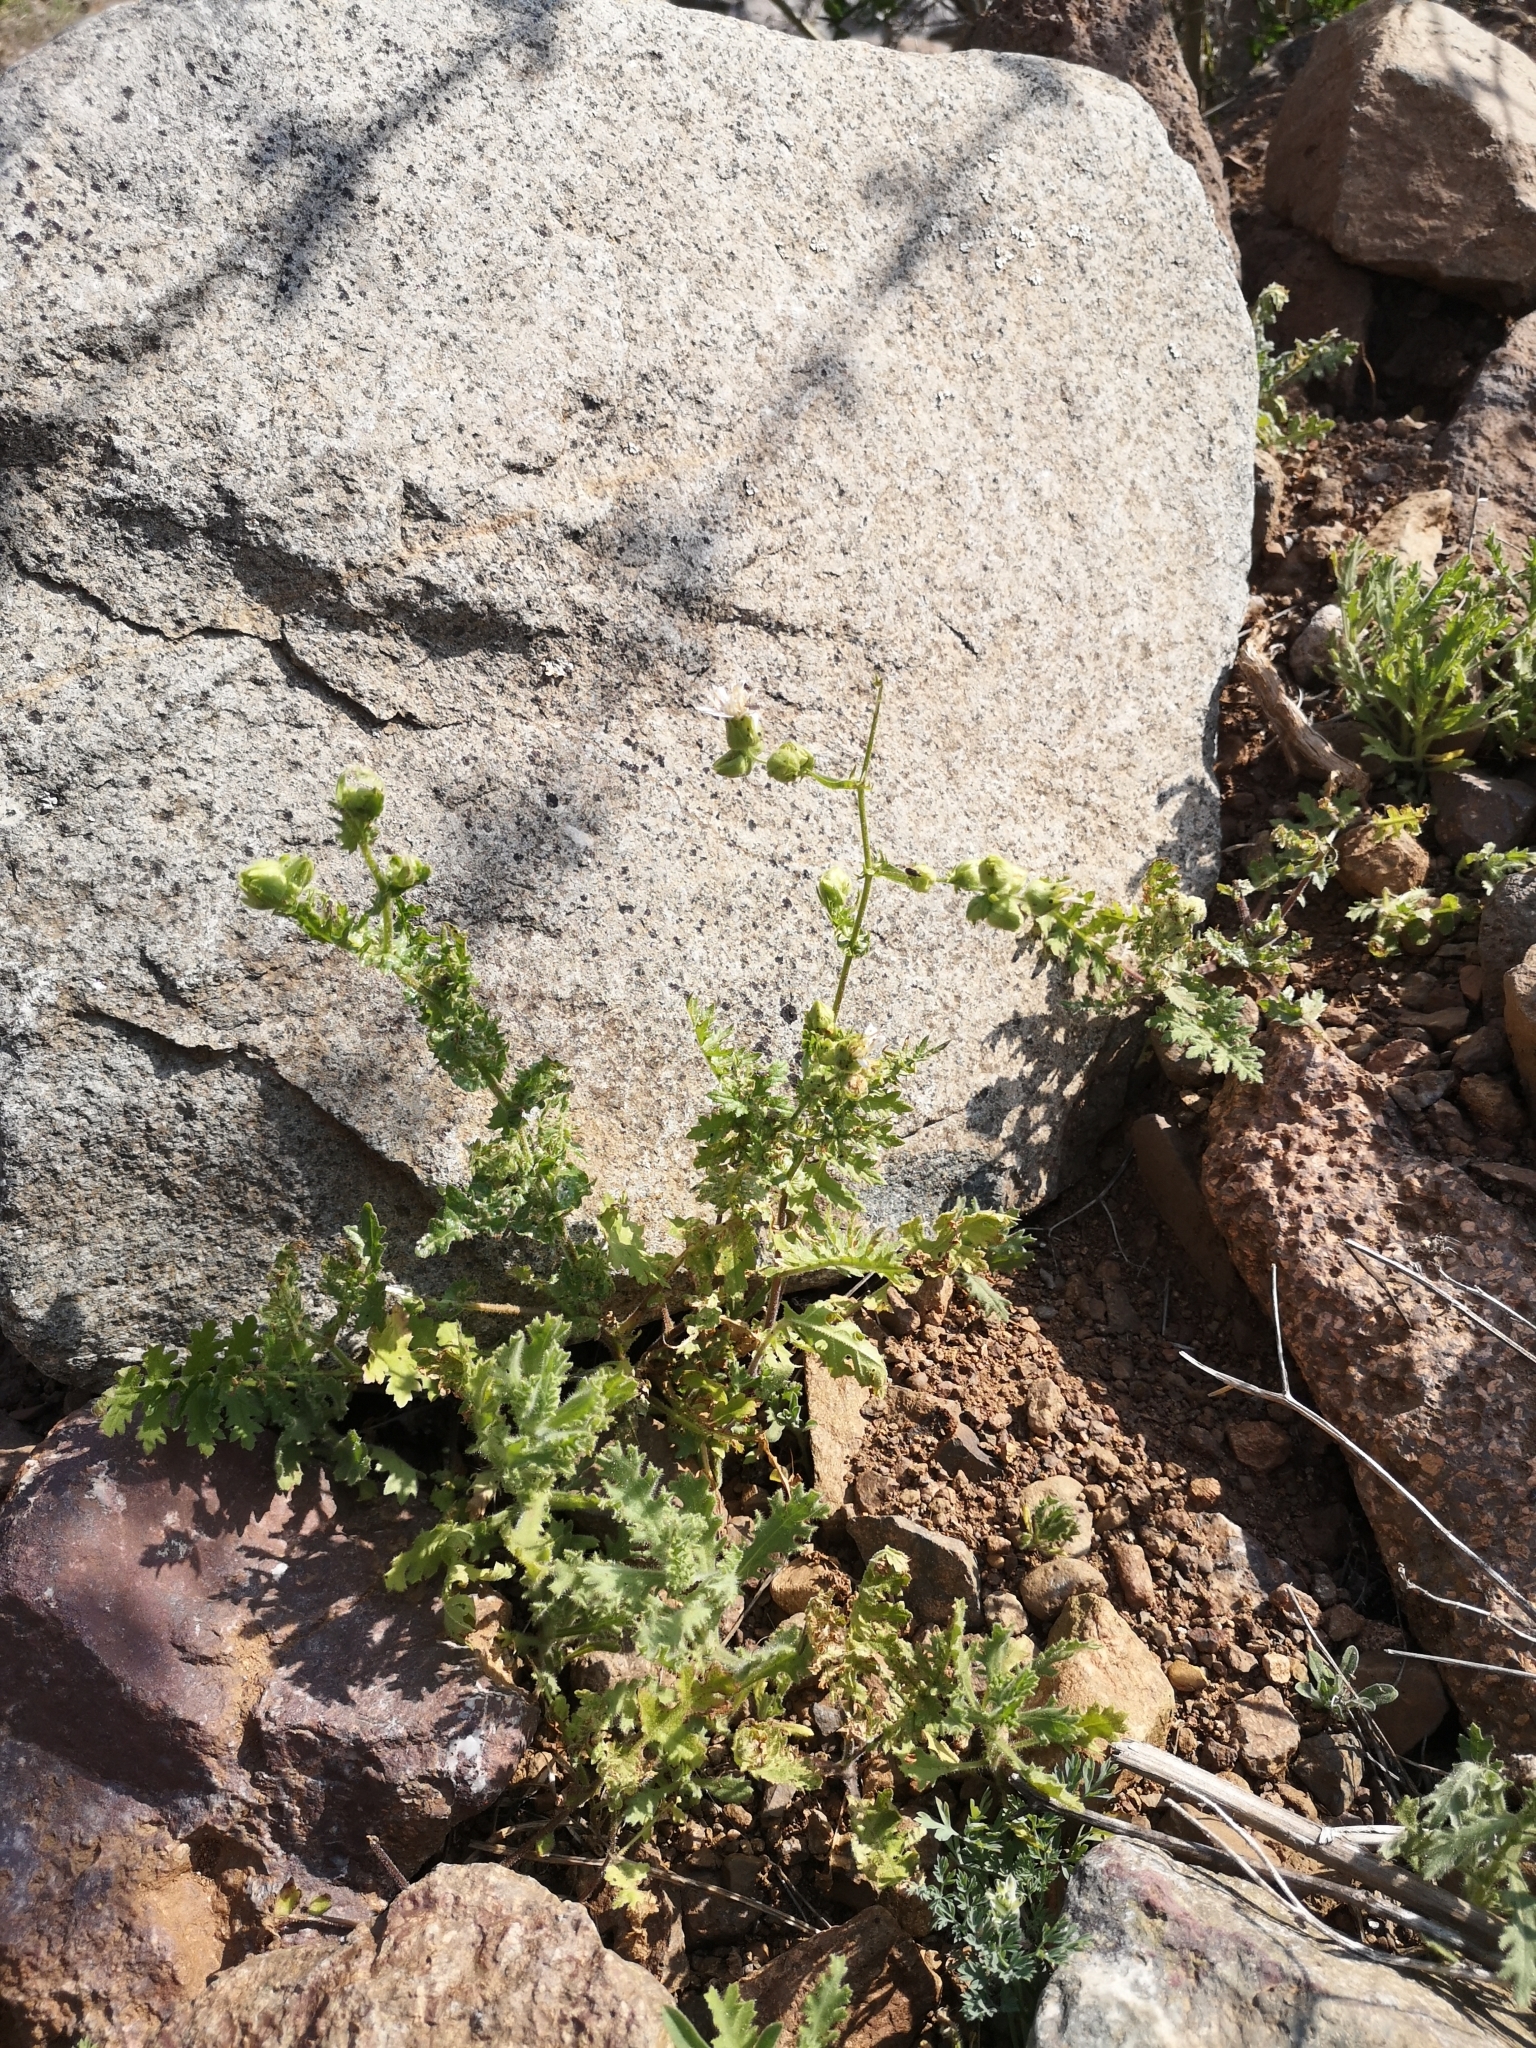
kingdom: Plantae
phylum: Tracheophyta
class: Magnoliopsida
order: Asterales
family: Asteraceae
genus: Moscharia
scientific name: Moscharia pinnatifida
